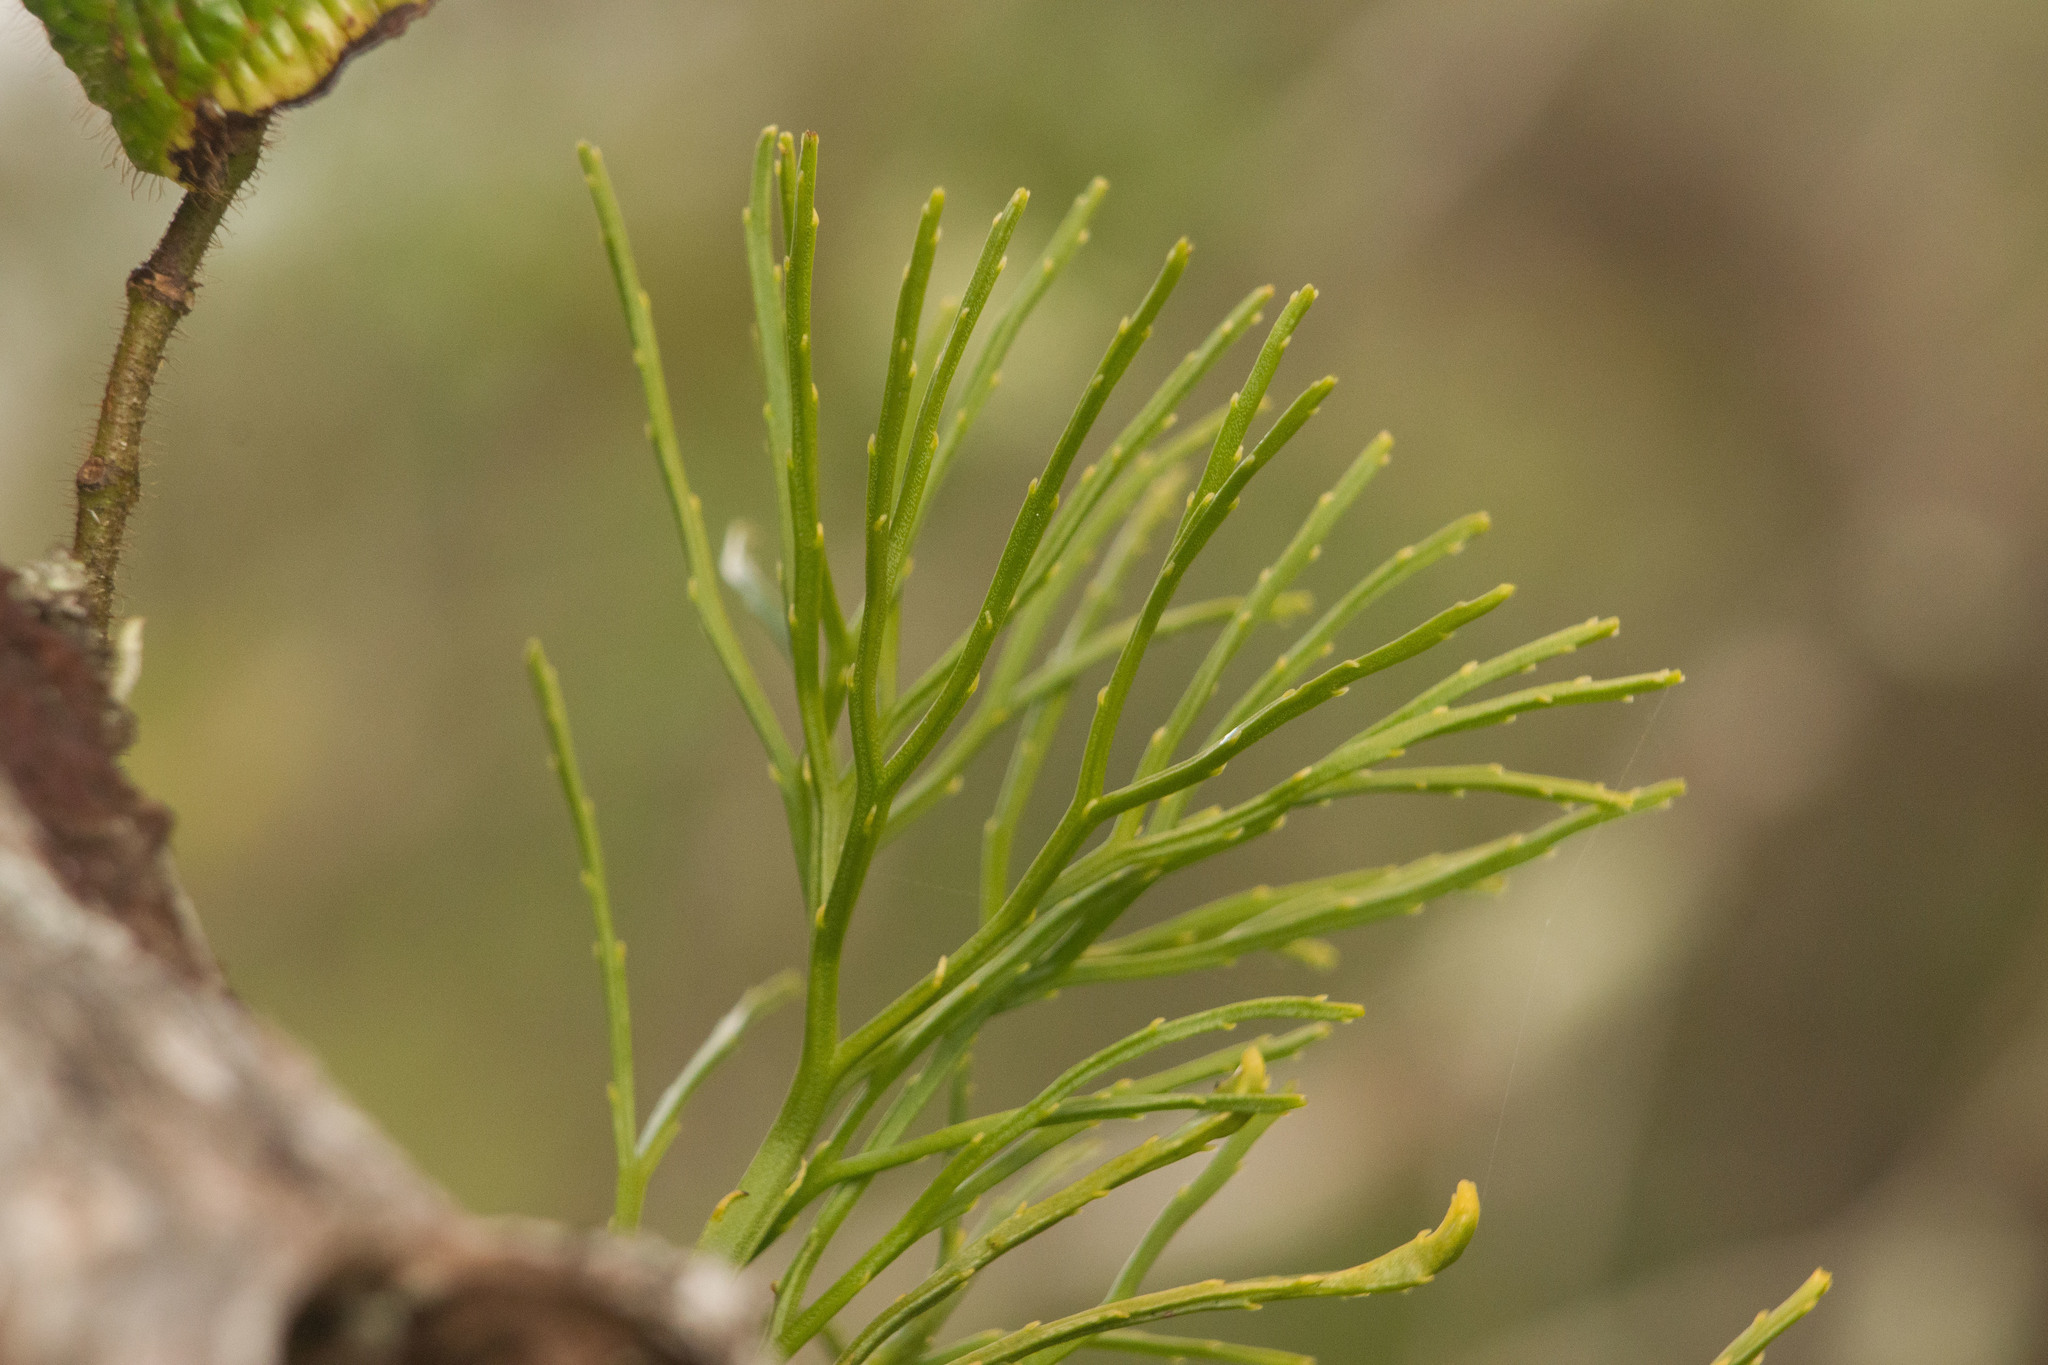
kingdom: Plantae
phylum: Tracheophyta
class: Polypodiopsida
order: Psilotales
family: Psilotaceae
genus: Psilotum
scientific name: Psilotum nudum
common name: Skeleton fork fern
